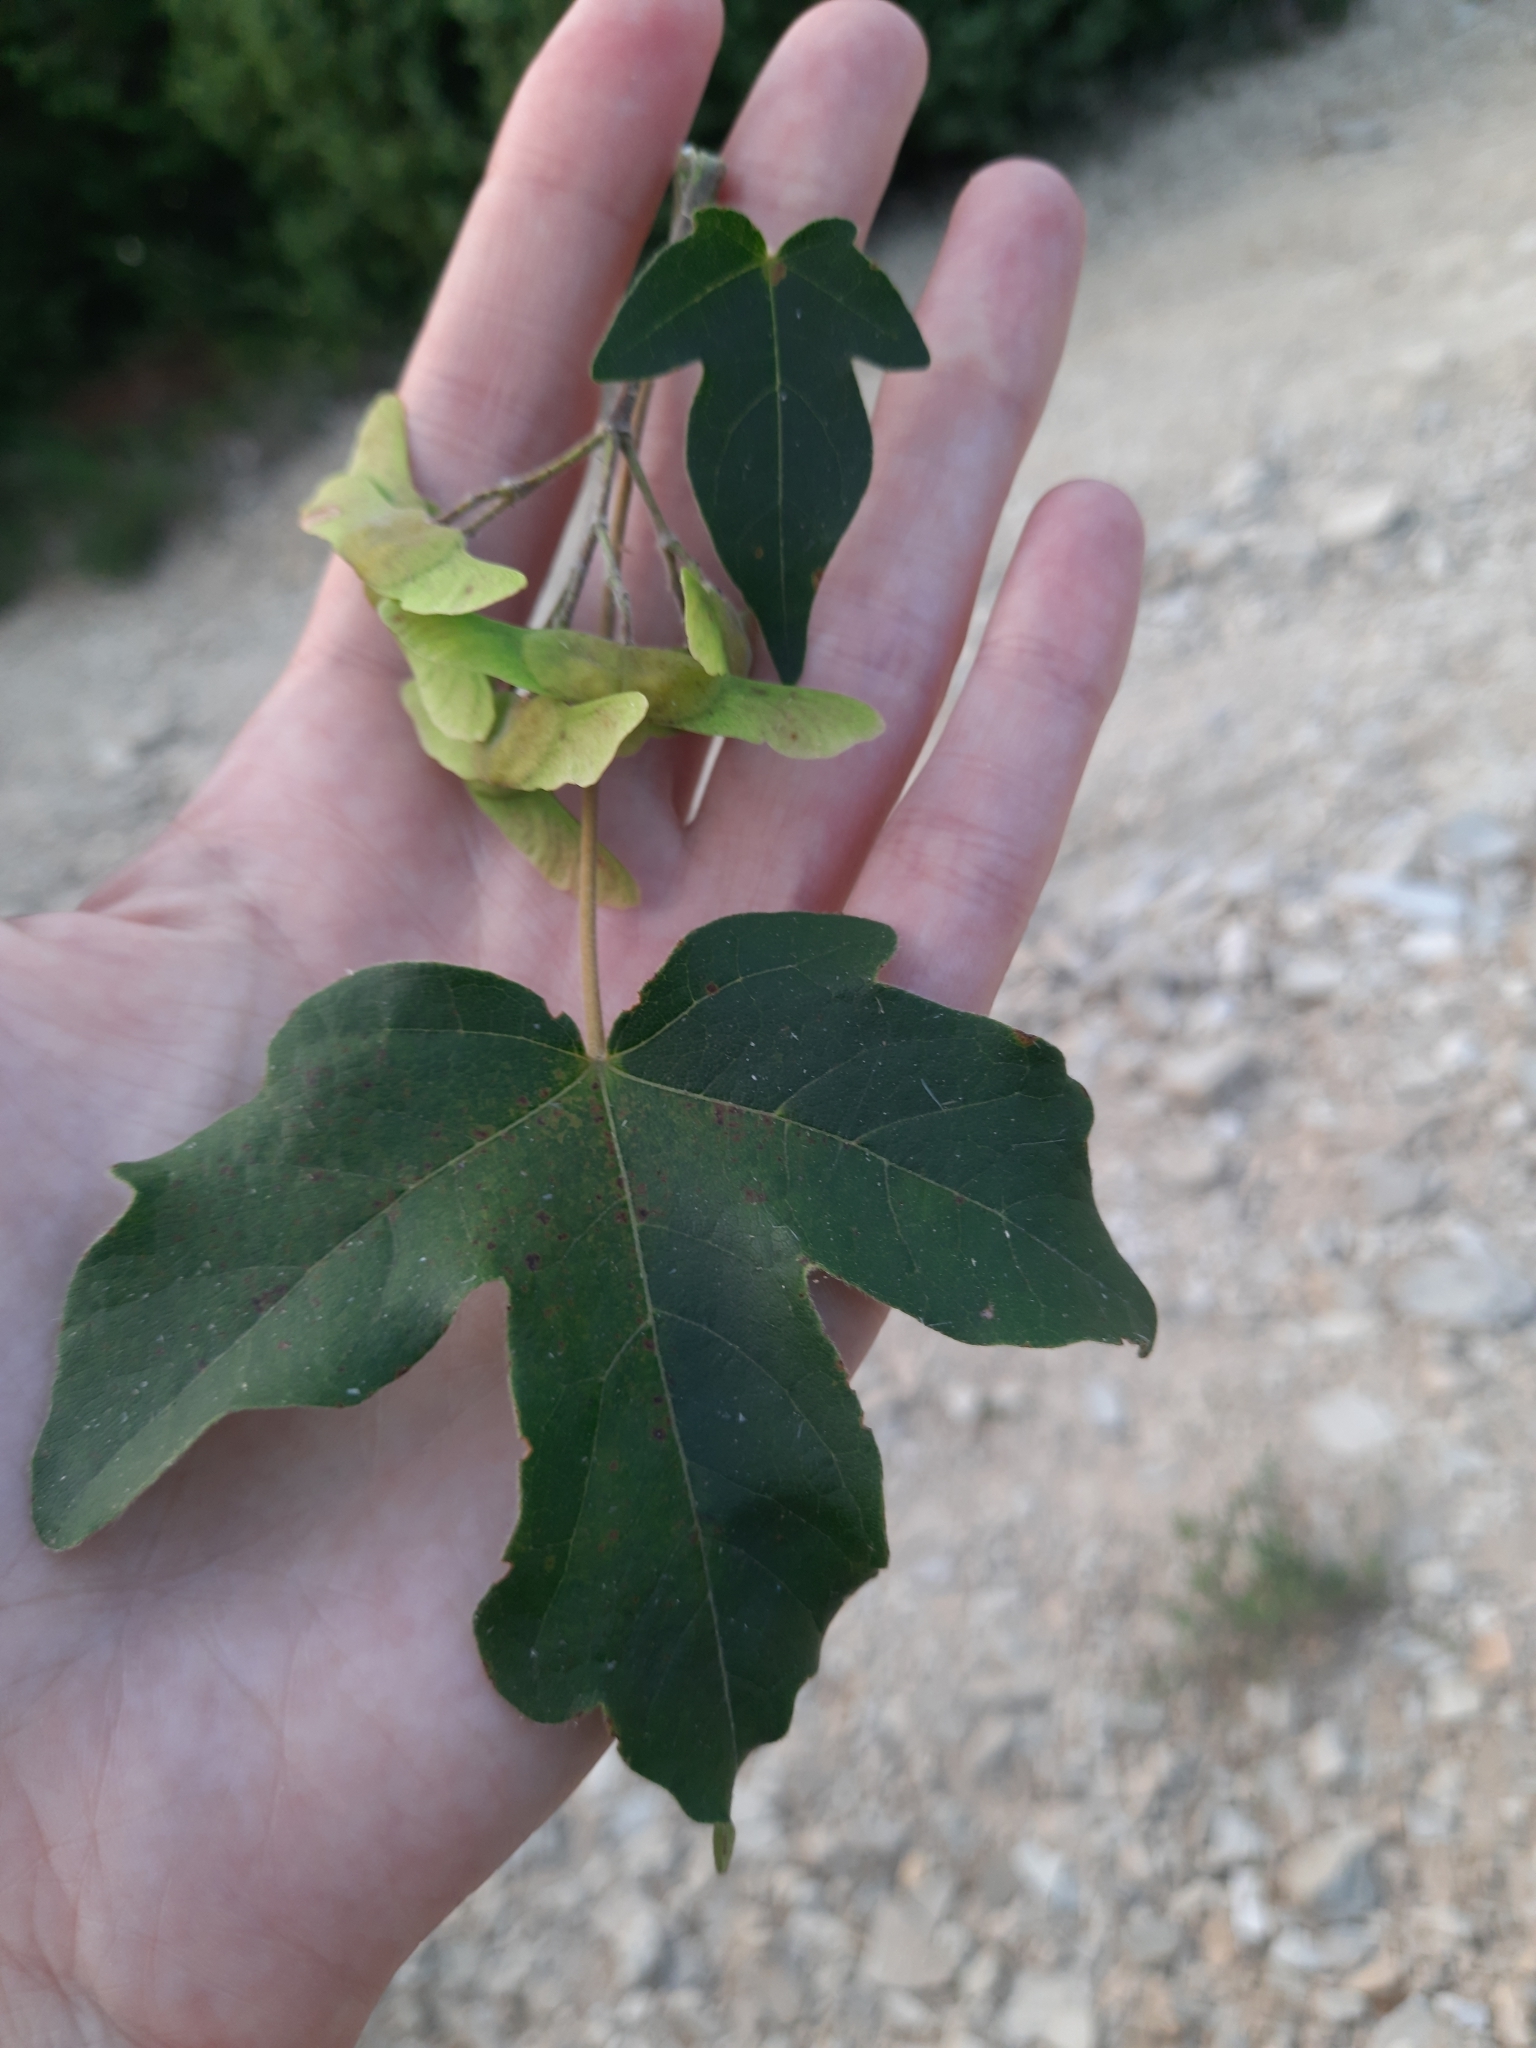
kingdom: Plantae
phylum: Tracheophyta
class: Magnoliopsida
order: Sapindales
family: Sapindaceae
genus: Acer
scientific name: Acer campestre
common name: Field maple
